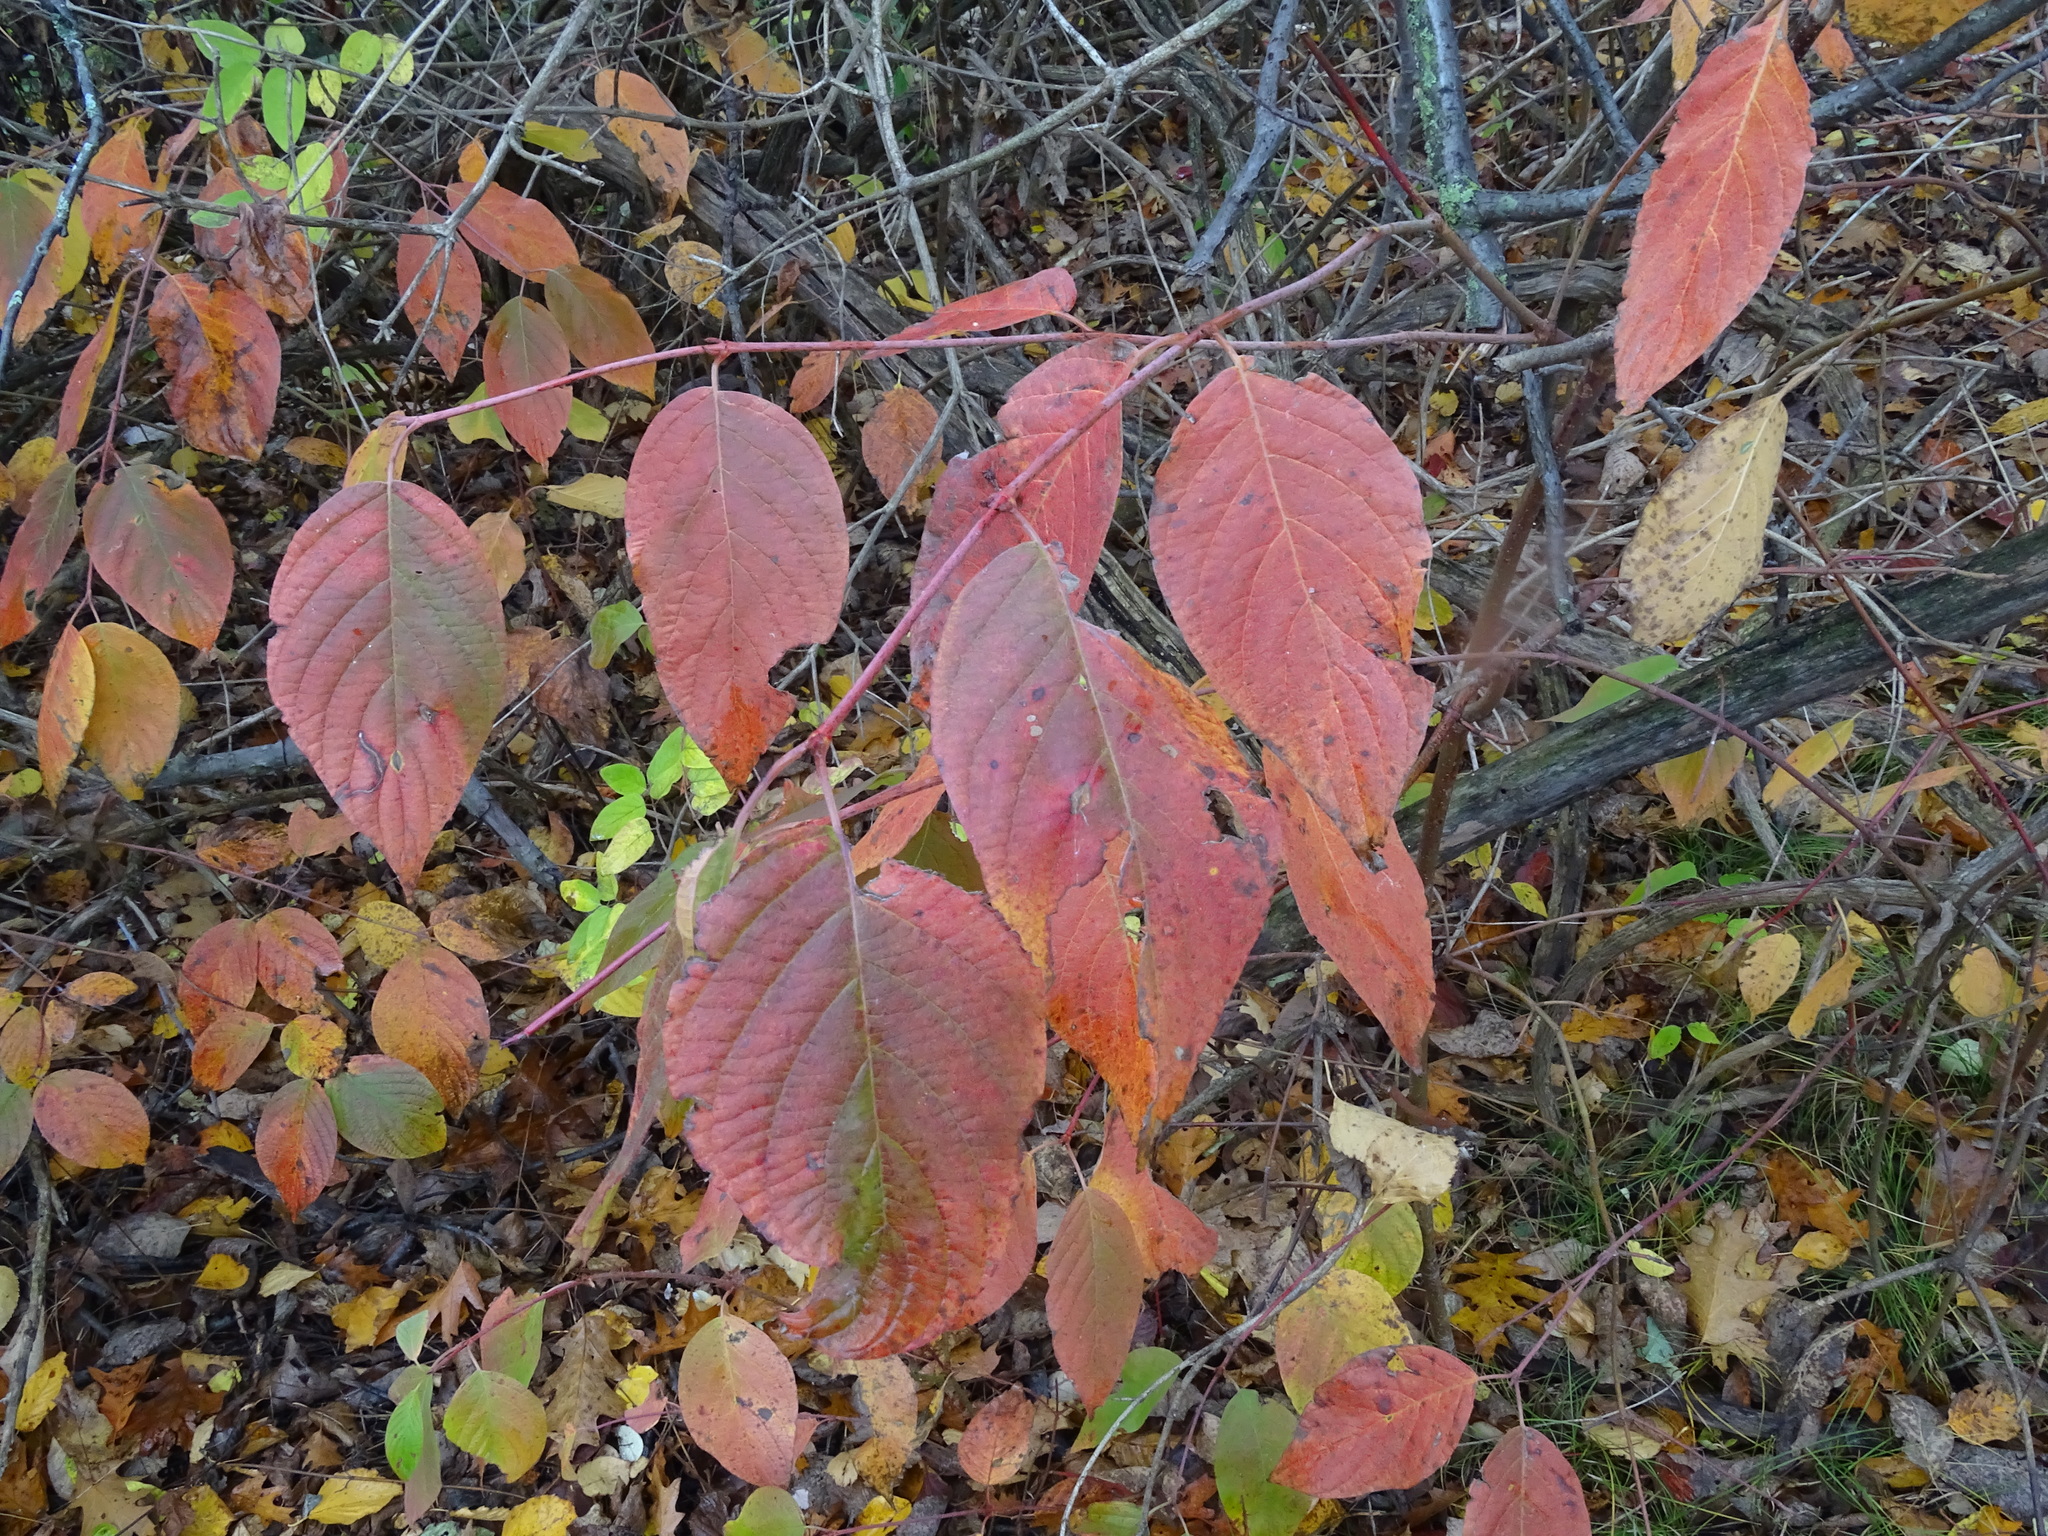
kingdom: Plantae
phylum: Tracheophyta
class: Magnoliopsida
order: Cornales
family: Cornaceae
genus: Cornus
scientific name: Cornus rugosa
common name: Round-leaf dogwood
